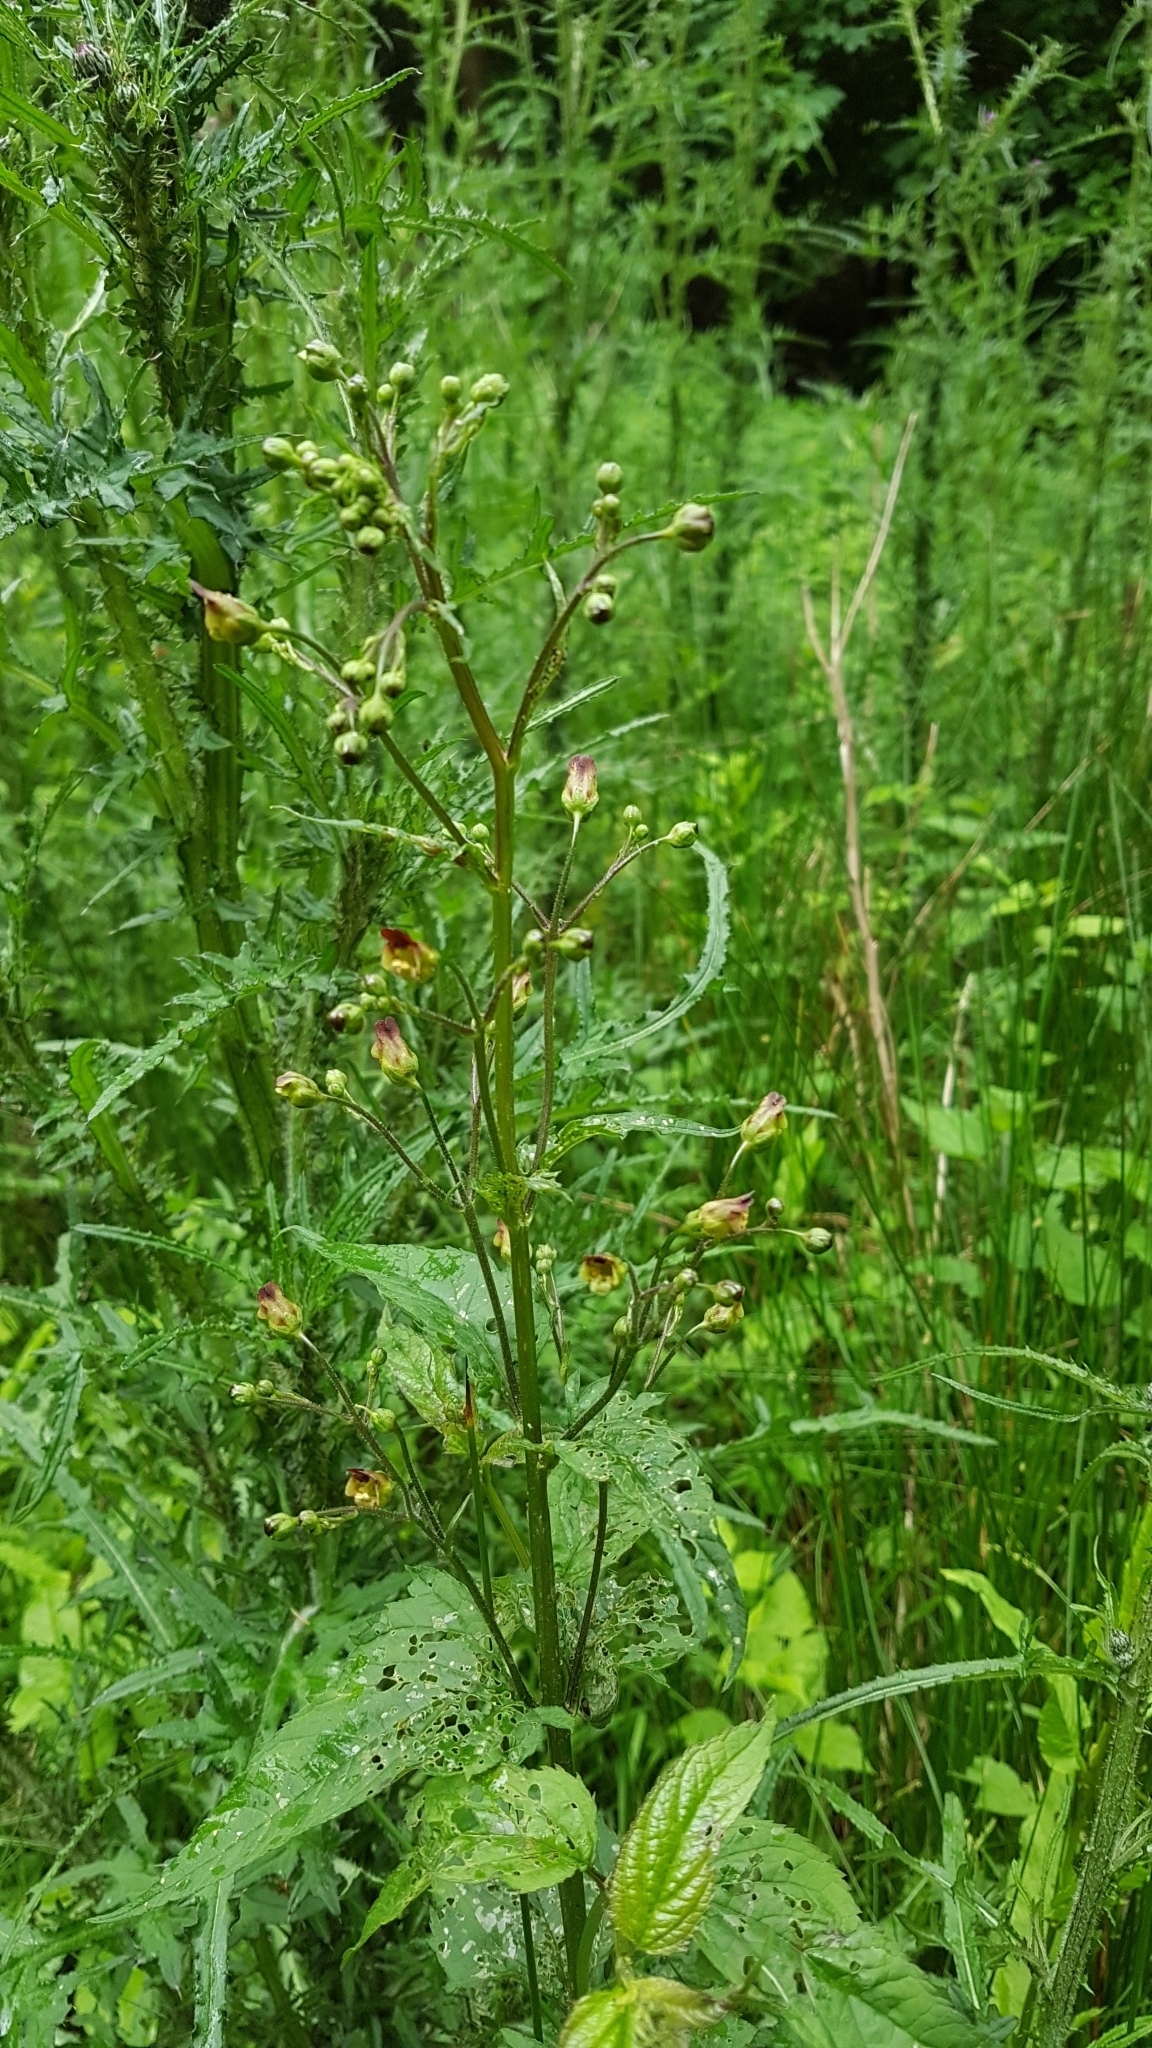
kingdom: Plantae
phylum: Tracheophyta
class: Magnoliopsida
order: Lamiales
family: Scrophulariaceae
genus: Scrophularia
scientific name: Scrophularia nodosa
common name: Common figwort
